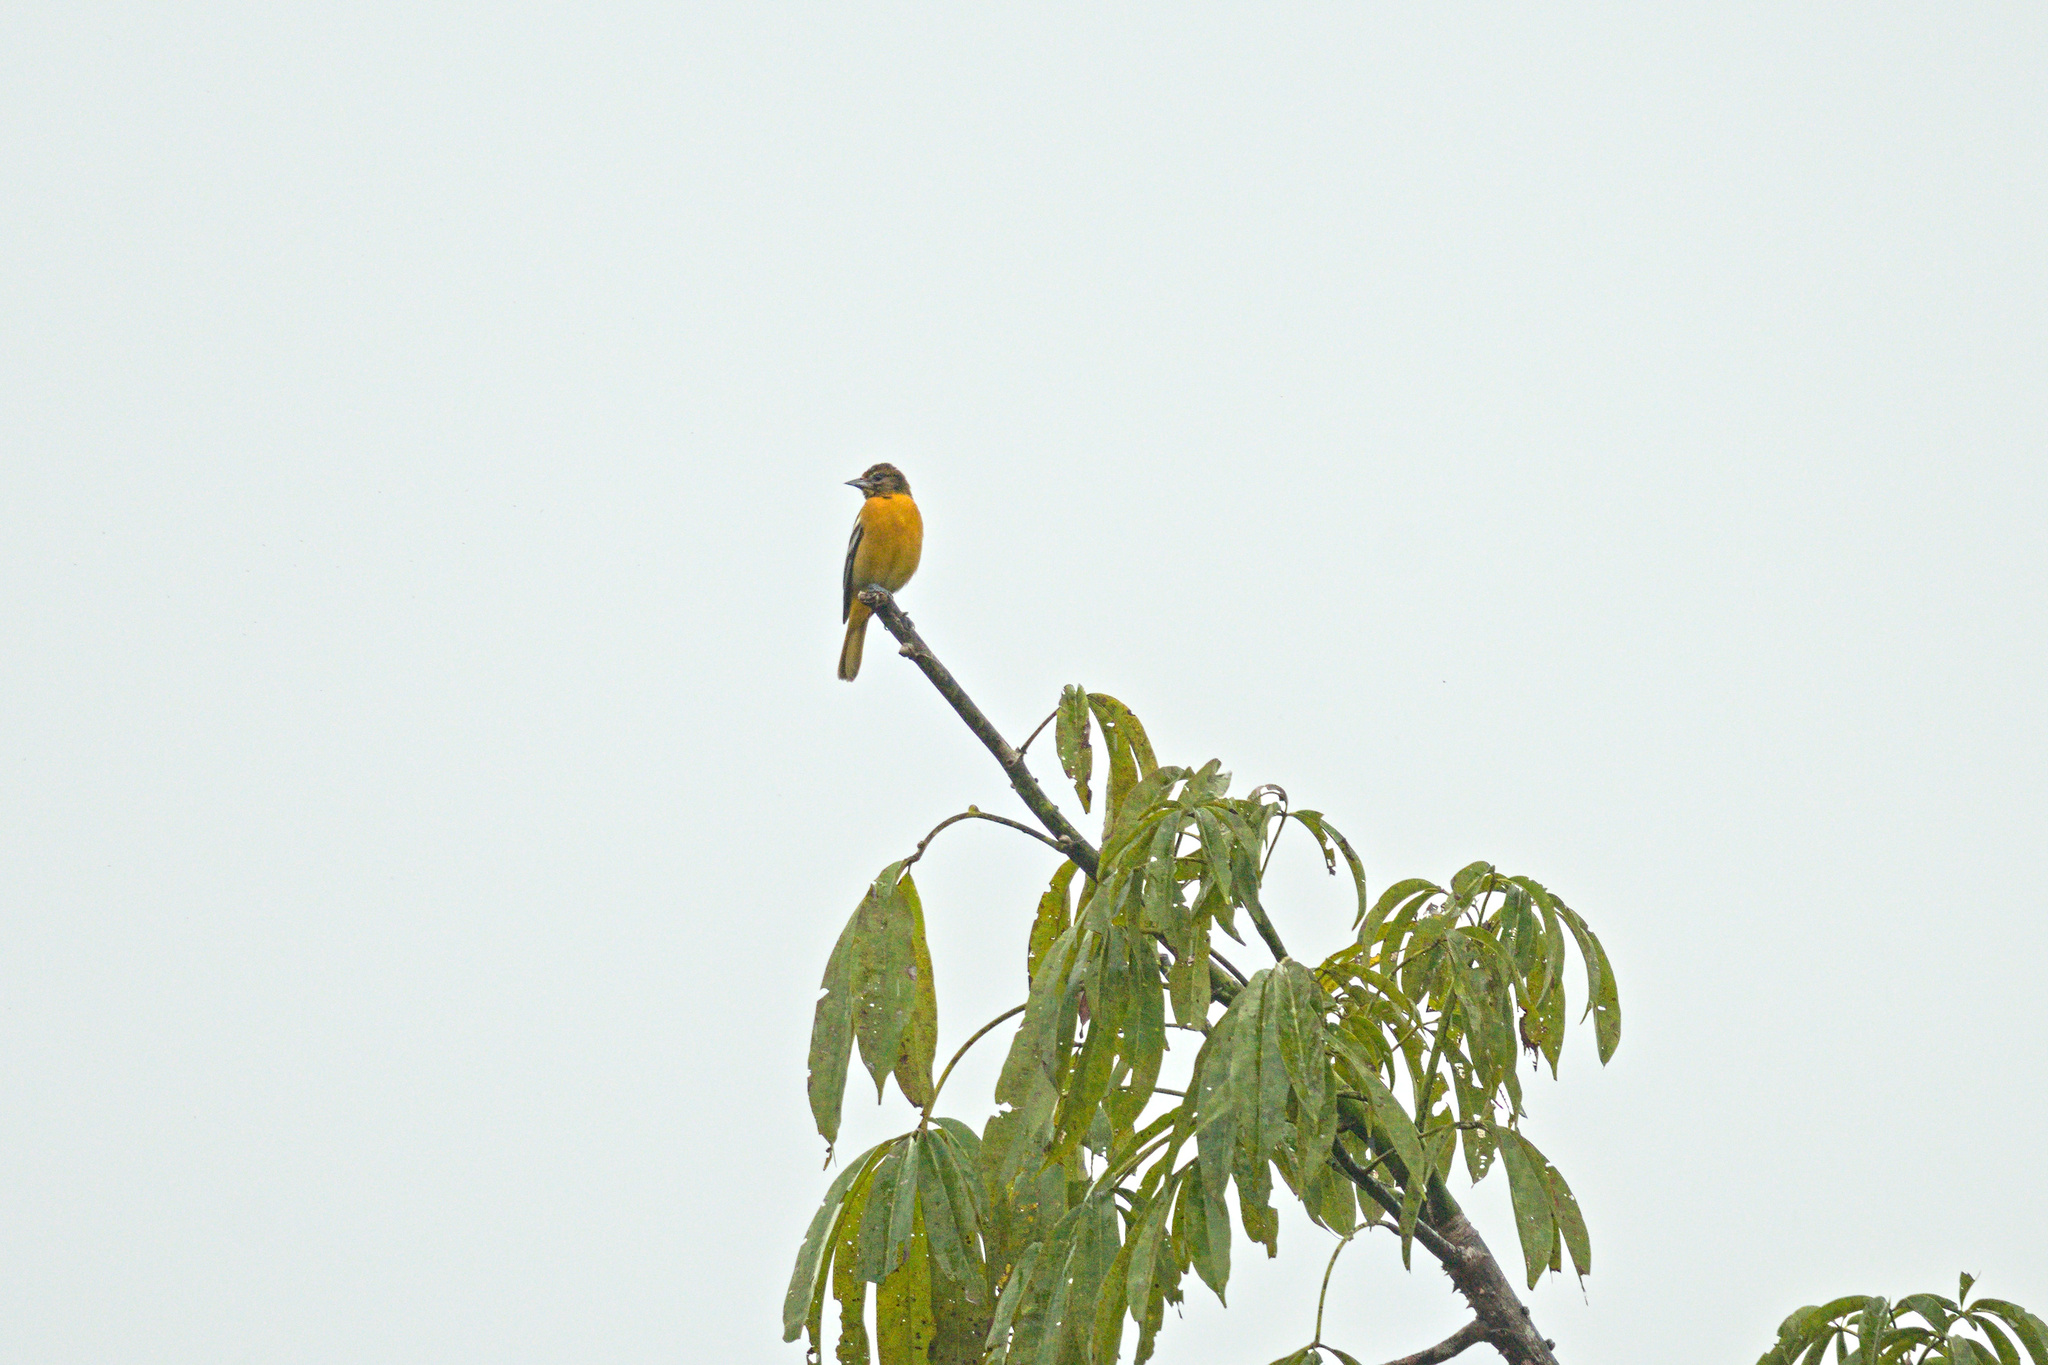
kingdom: Animalia
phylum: Chordata
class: Aves
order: Passeriformes
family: Icteridae
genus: Icterus
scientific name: Icterus galbula
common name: Baltimore oriole
